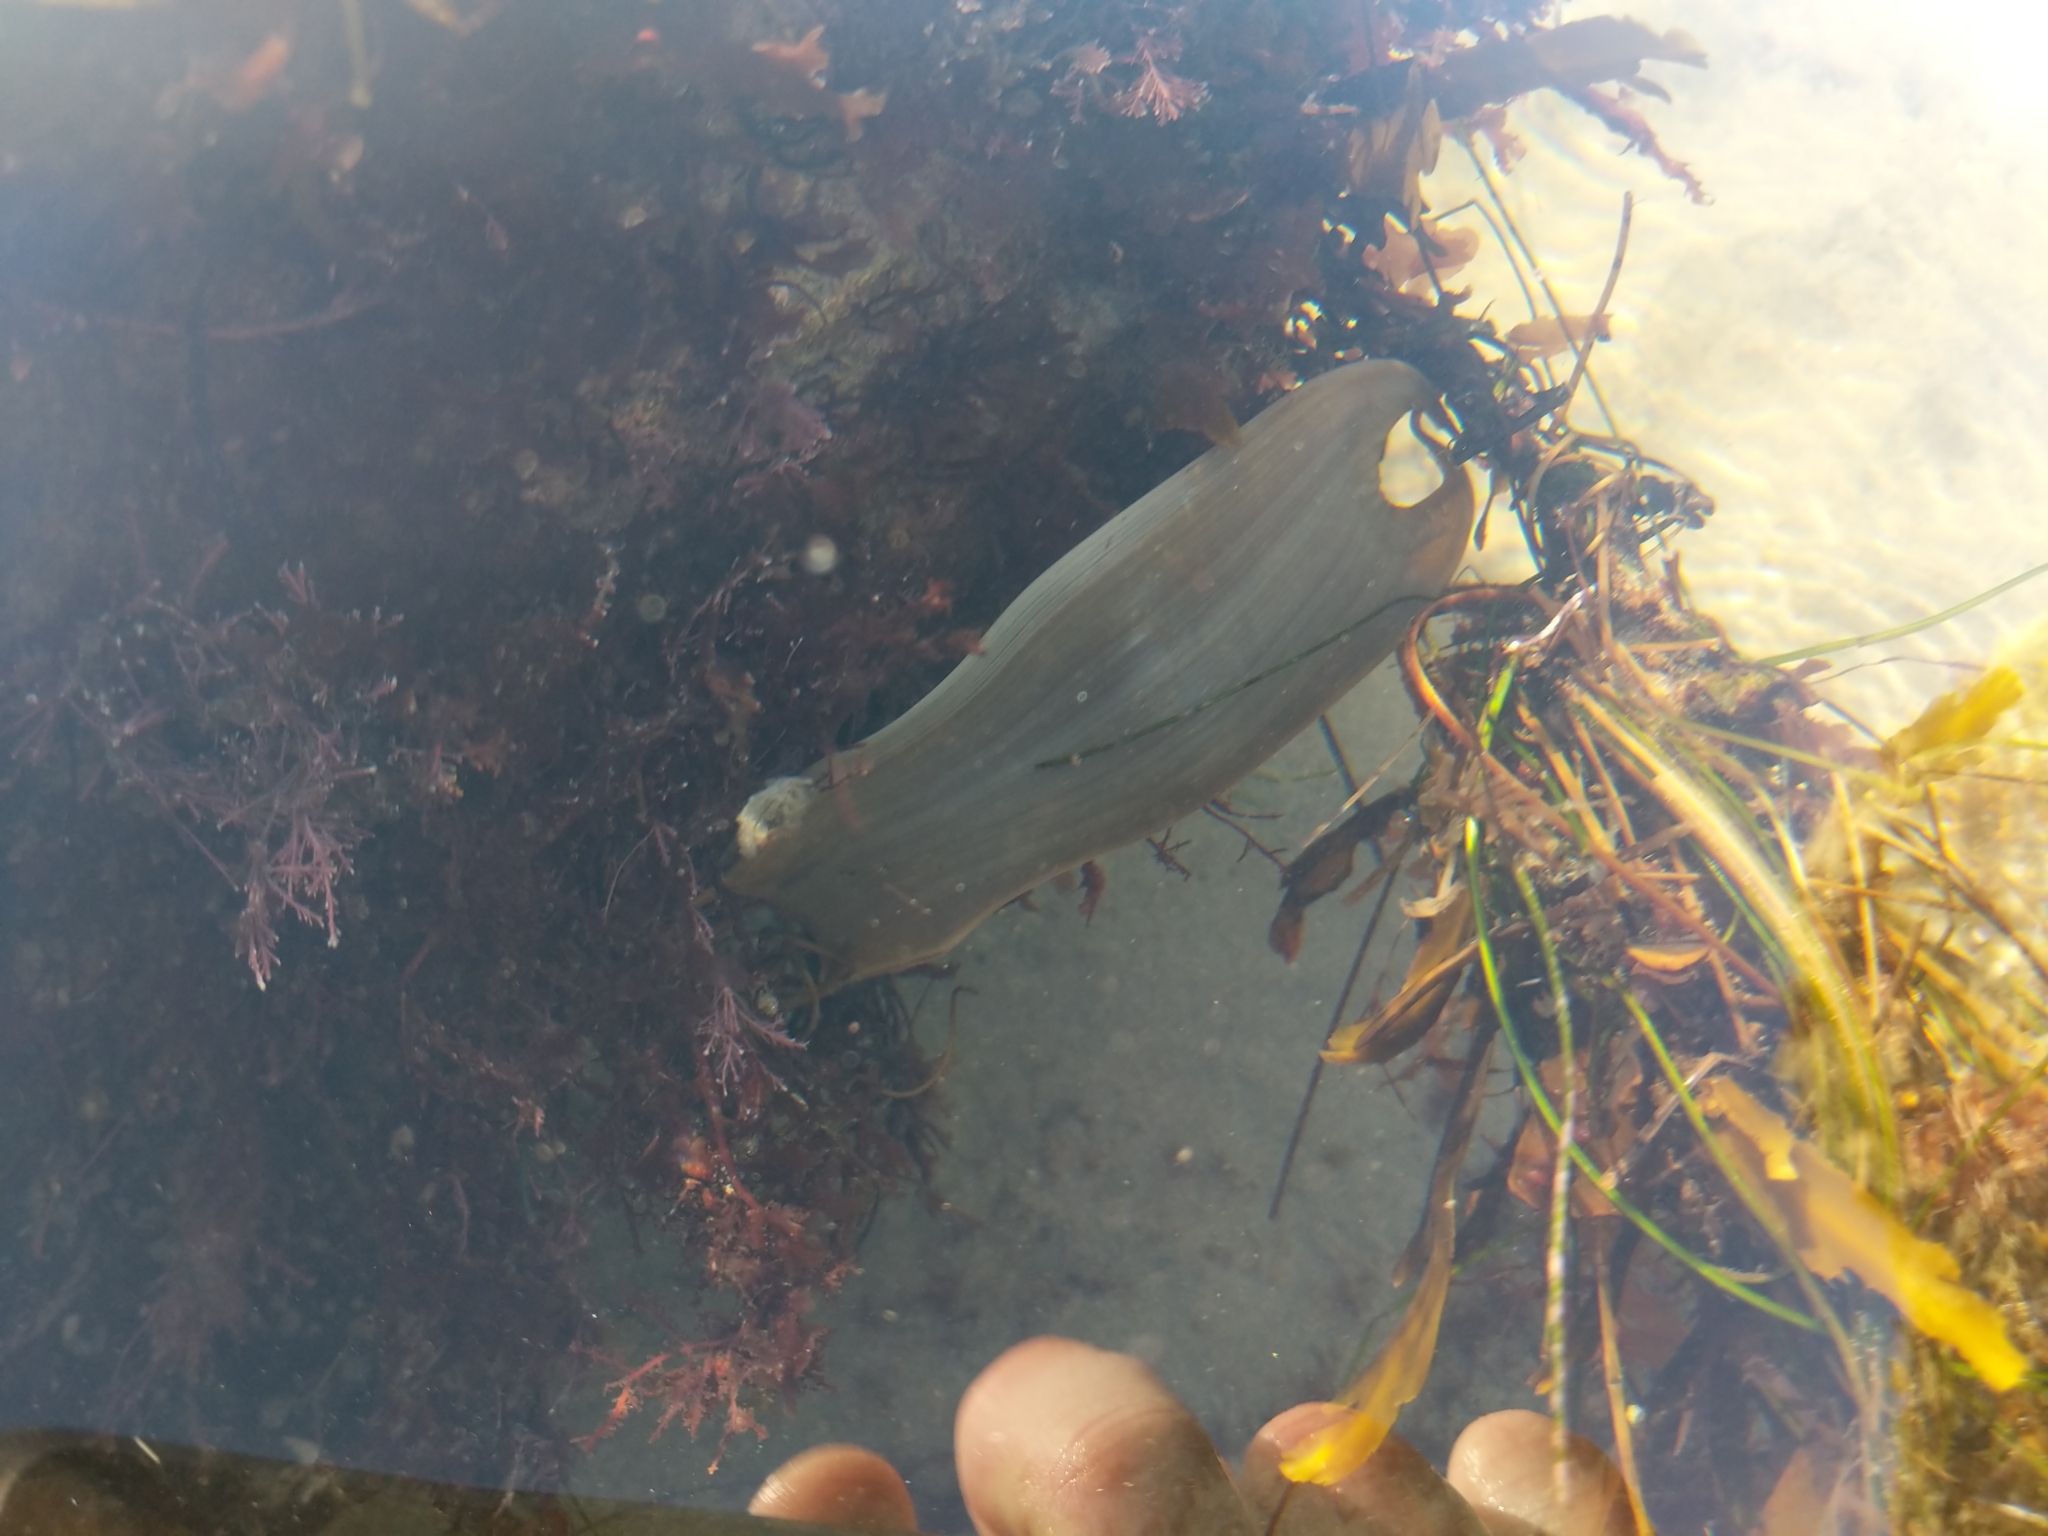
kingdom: Animalia
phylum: Chordata
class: Elasmobranchii
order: Carcharhiniformes
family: Scyliorhinidae
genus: Cephaloscyllium
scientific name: Cephaloscyllium ventriosum
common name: Swell shark
